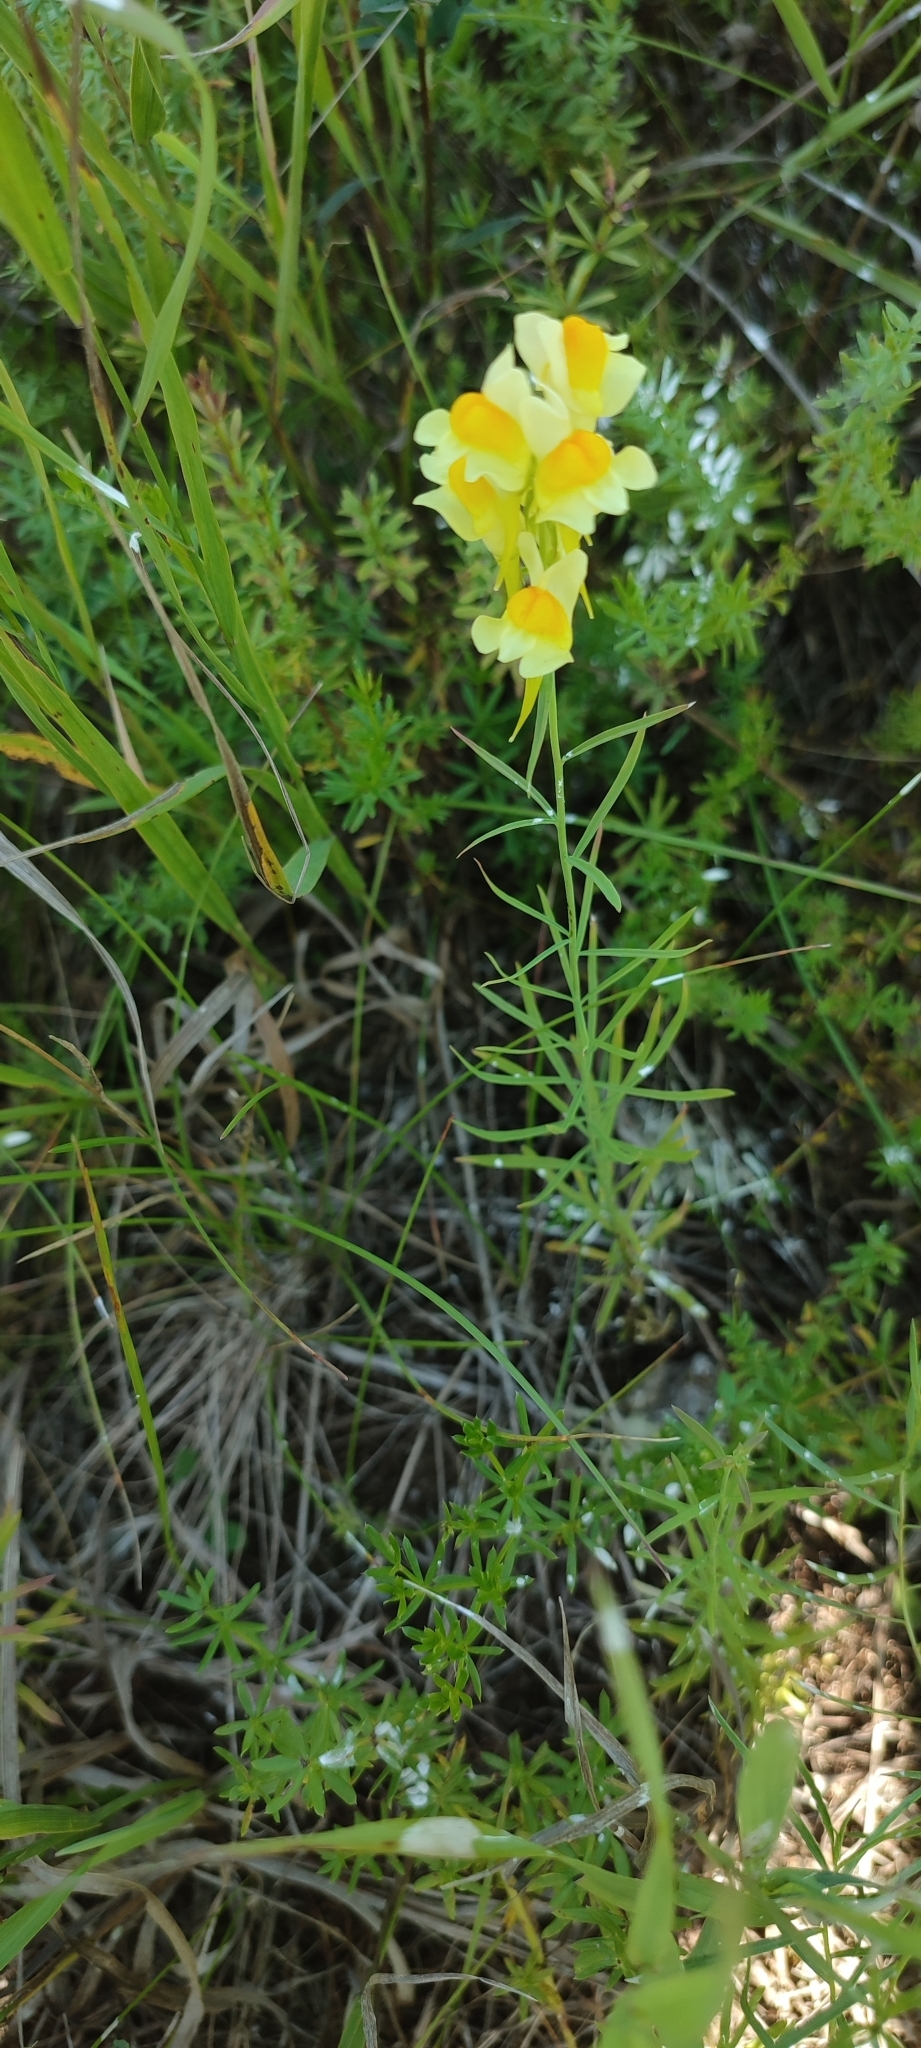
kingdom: Plantae
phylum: Tracheophyta
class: Magnoliopsida
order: Lamiales
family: Plantaginaceae
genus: Linaria
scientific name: Linaria vulgaris
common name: Butter and eggs
